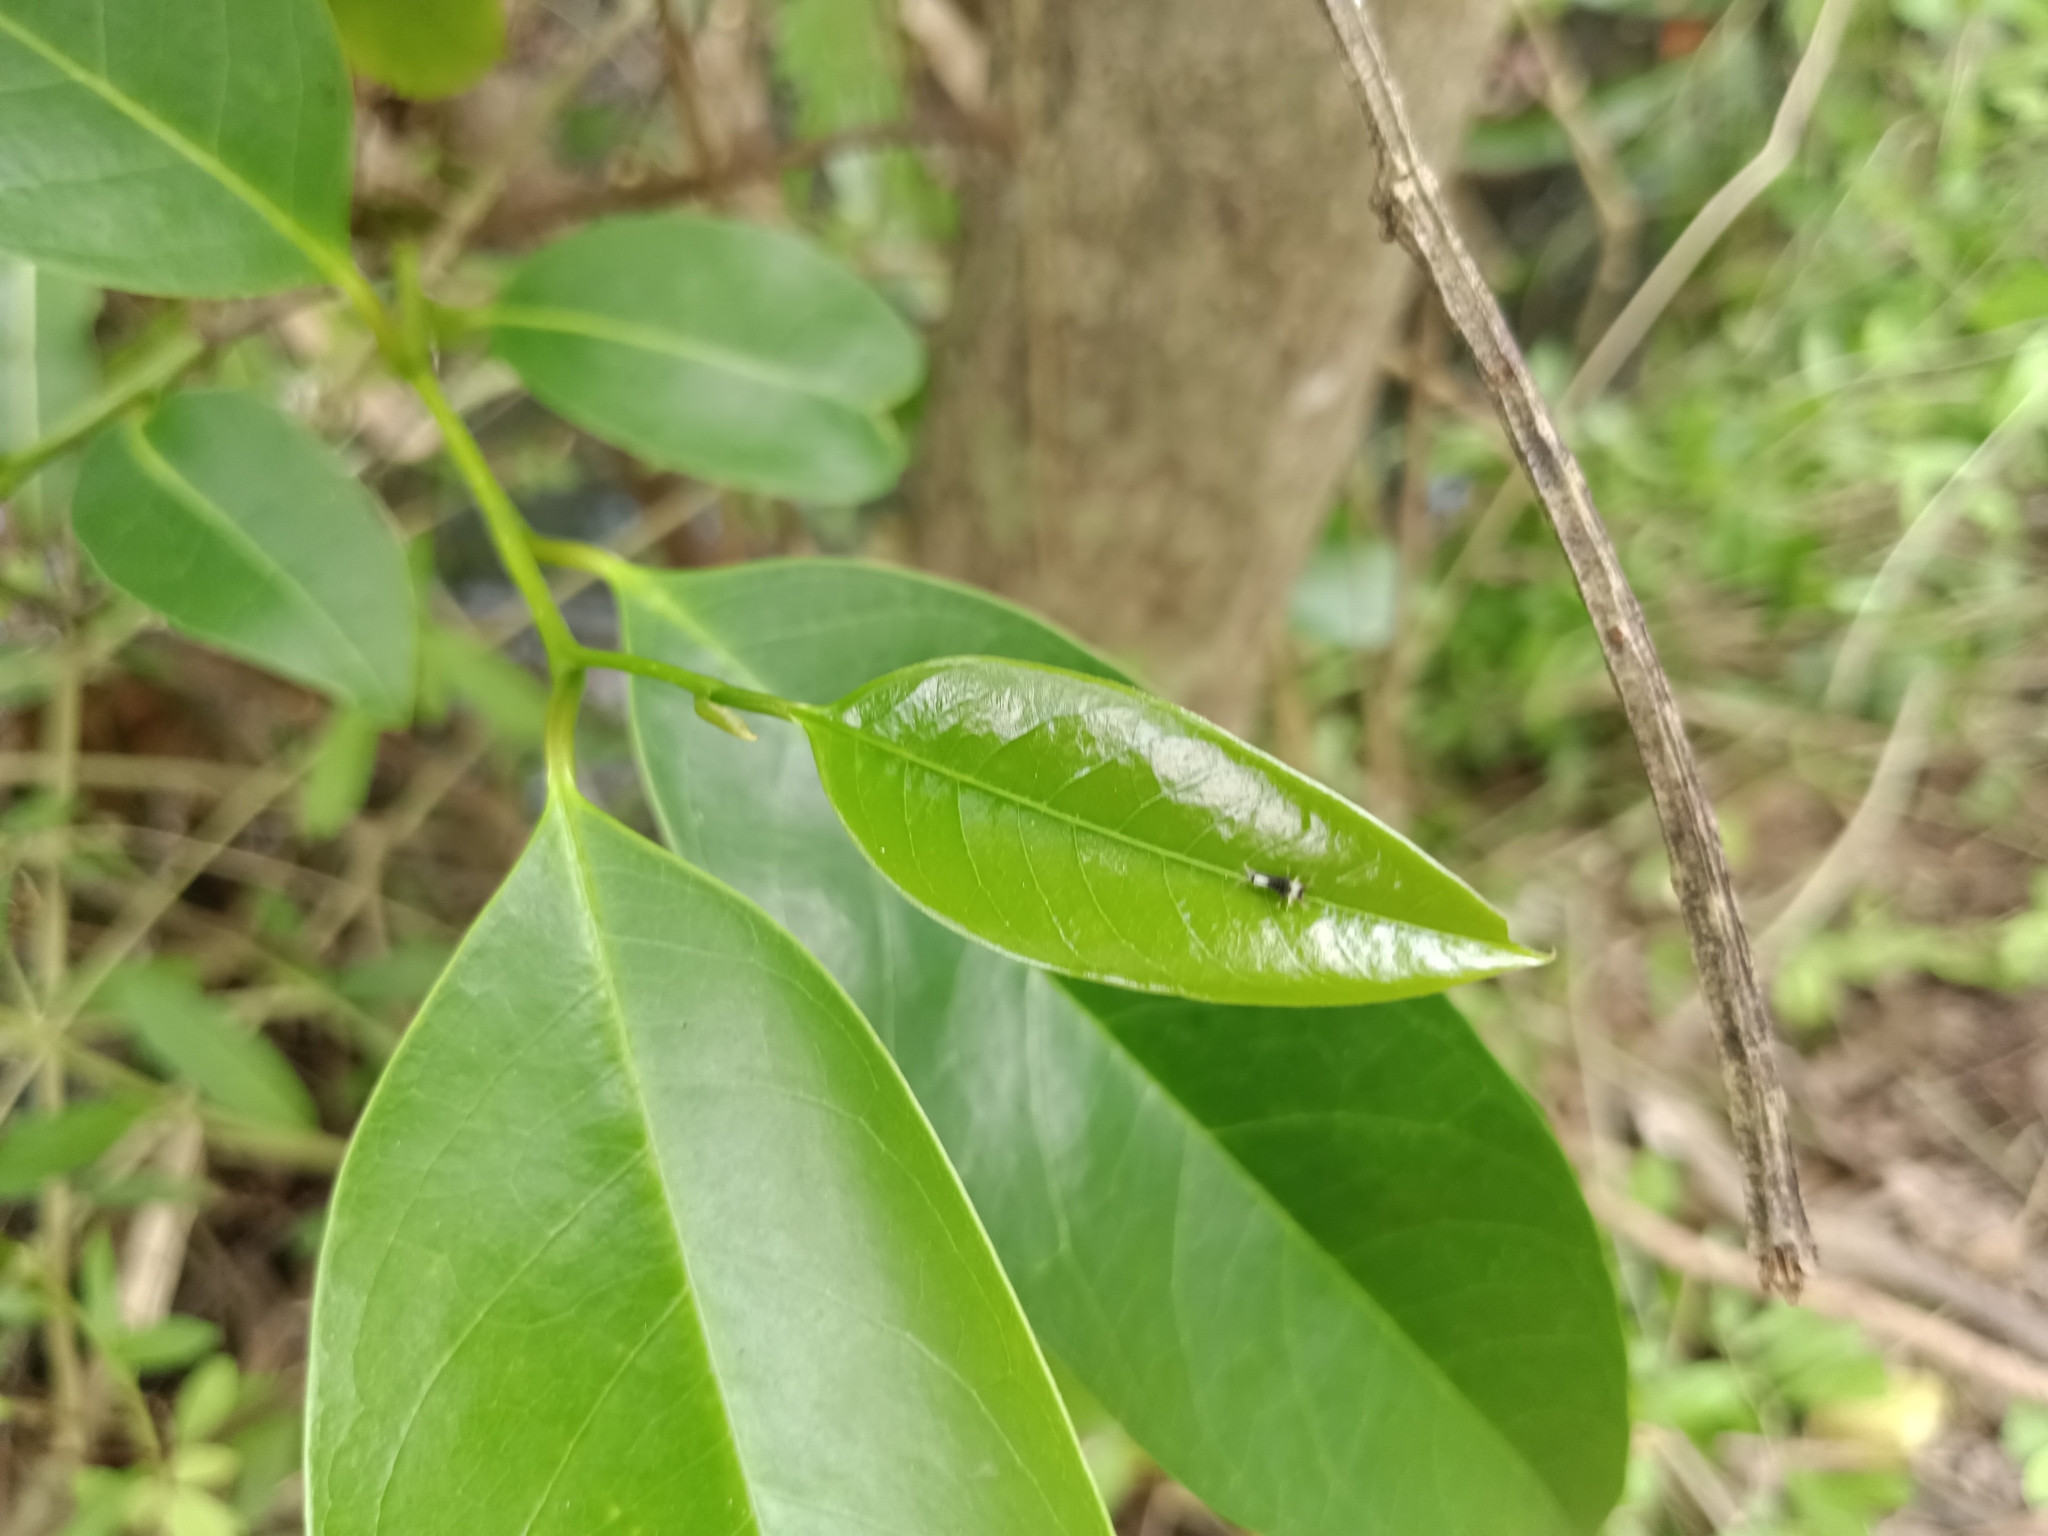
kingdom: Animalia
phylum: Arthropoda
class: Insecta
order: Lepidoptera
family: Papilionidae
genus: Graphium
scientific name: Graphium agamemnon
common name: Tailed jay
